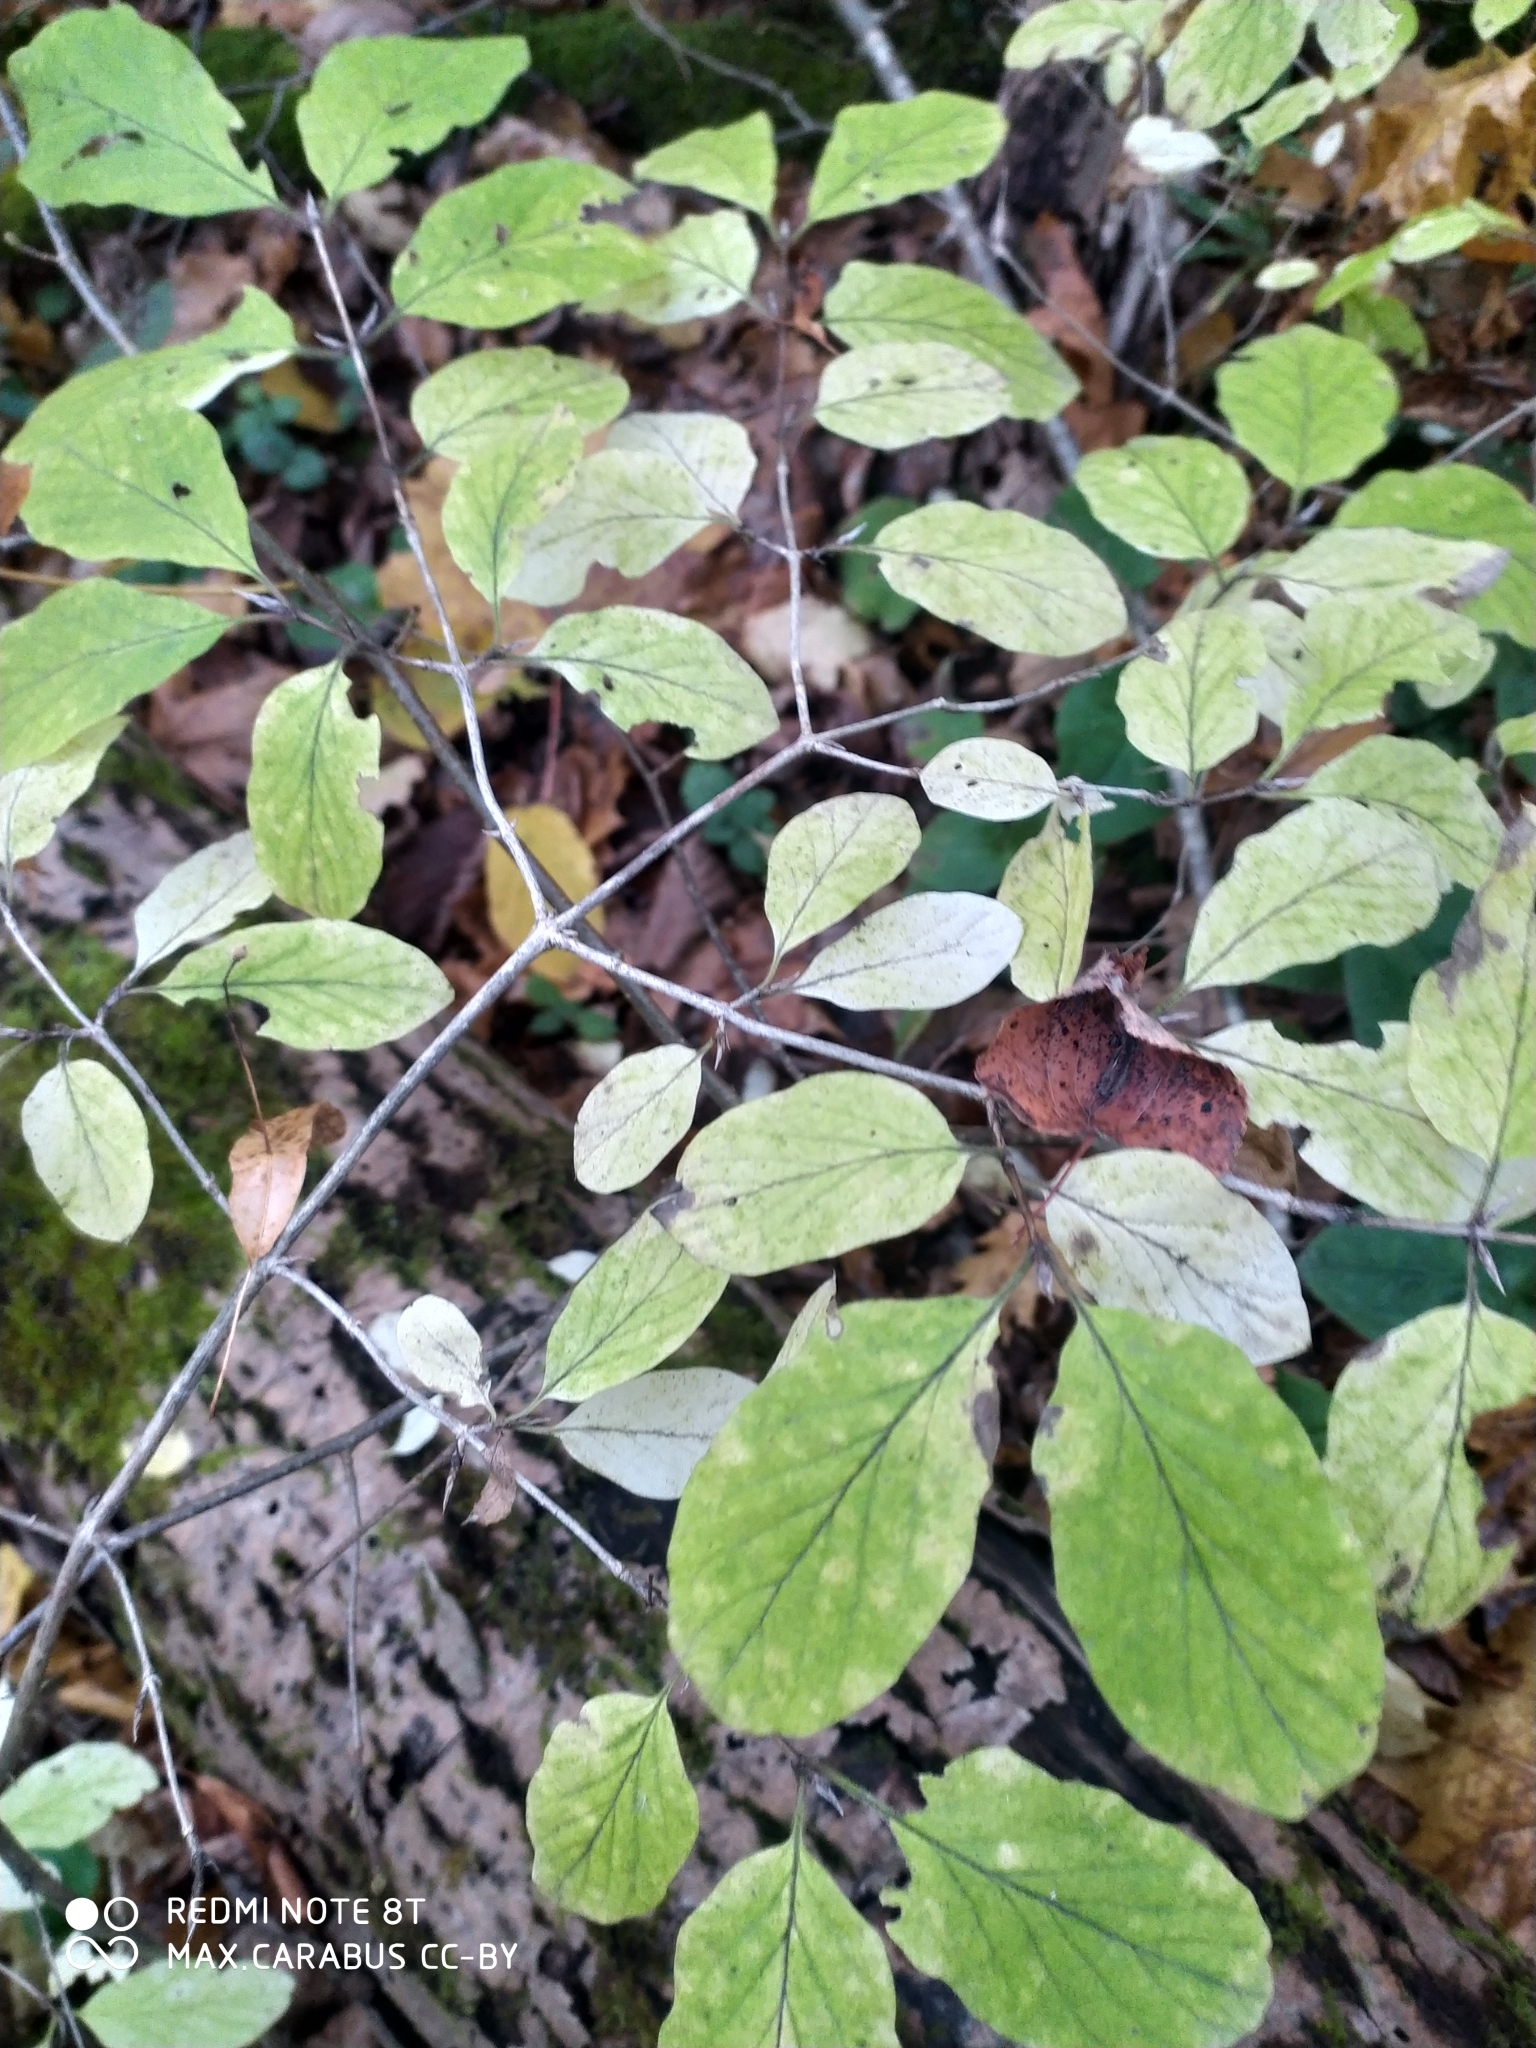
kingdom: Plantae
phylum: Tracheophyta
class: Magnoliopsida
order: Dipsacales
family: Caprifoliaceae
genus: Lonicera
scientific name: Lonicera xylosteum
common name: Fly honeysuckle
